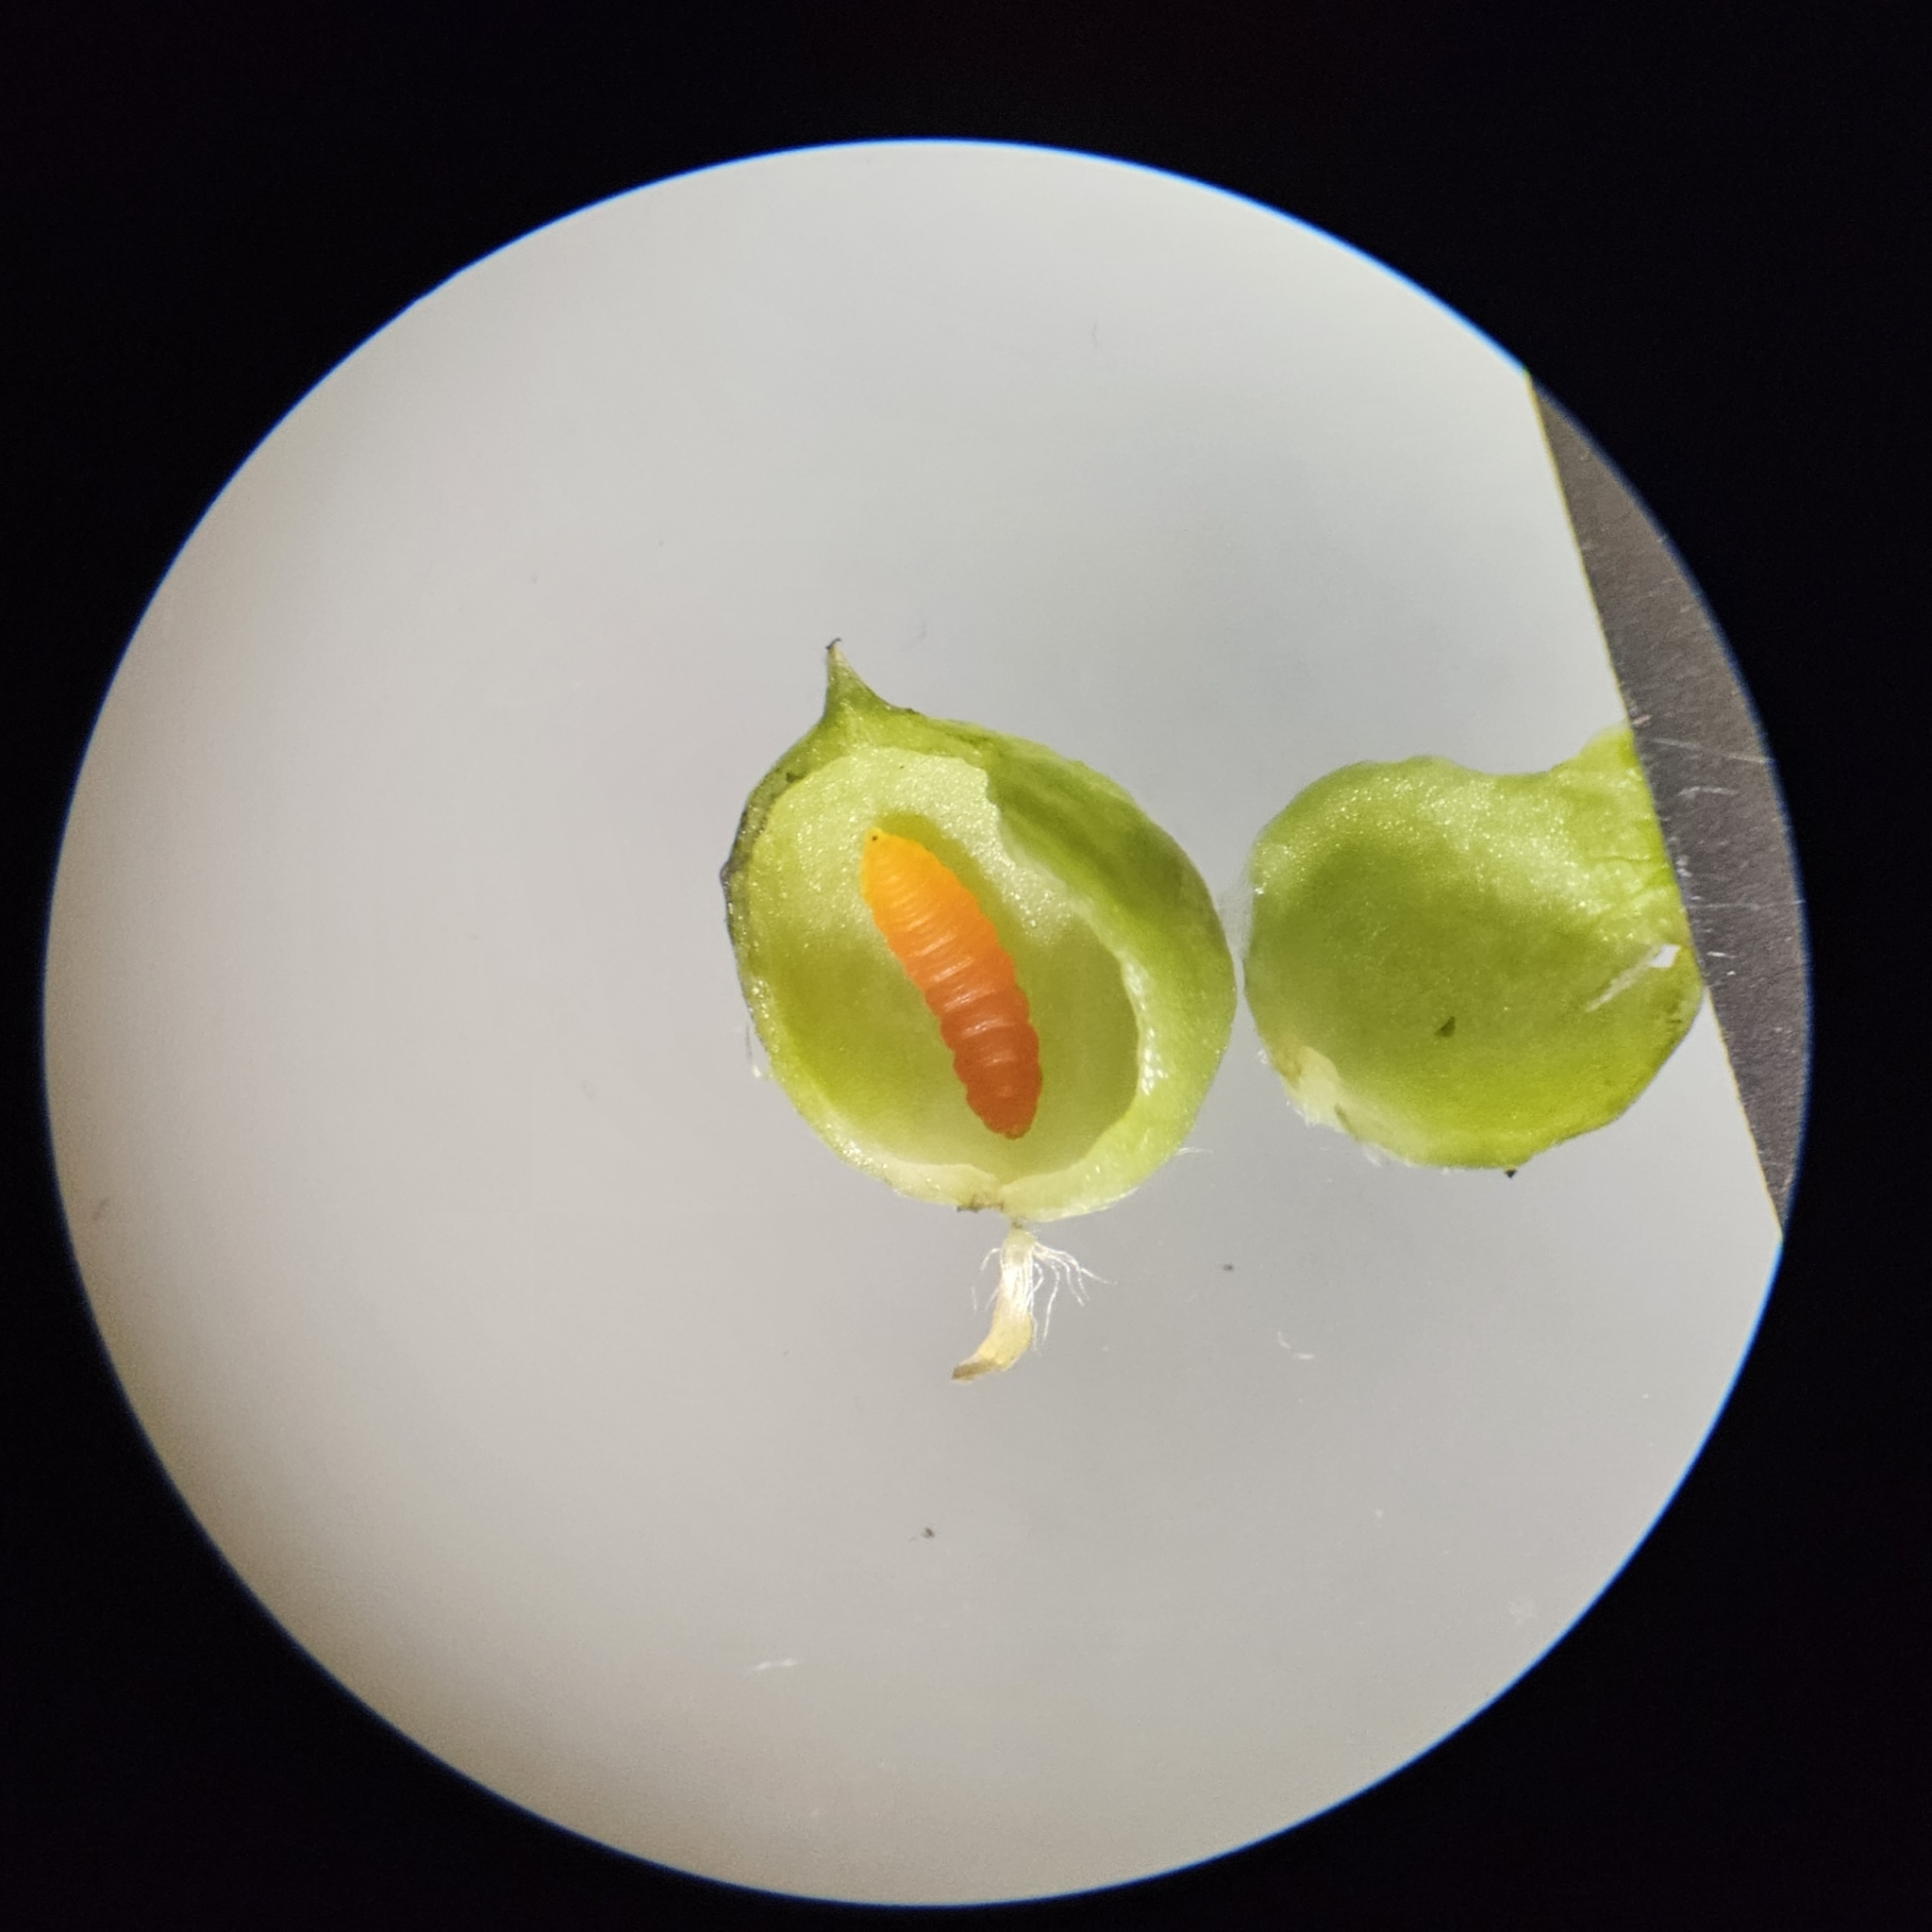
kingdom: Animalia
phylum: Arthropoda
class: Insecta
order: Diptera
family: Cecidomyiidae
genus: Schizomyia
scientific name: Schizomyia racemicola
